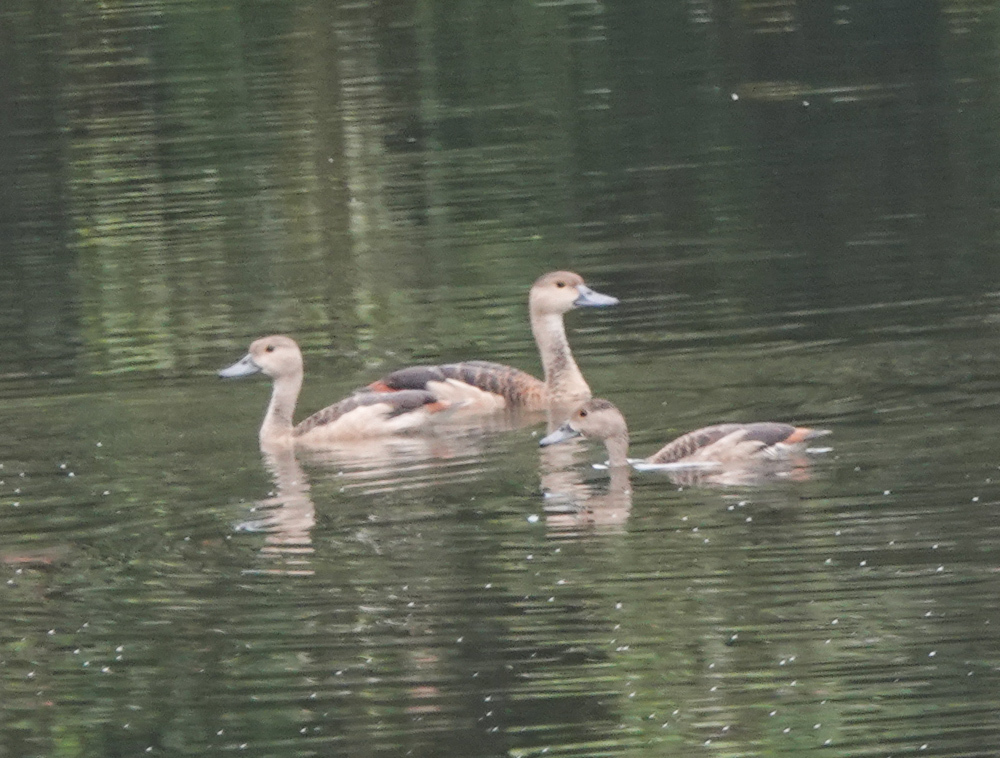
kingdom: Animalia
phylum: Chordata
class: Aves
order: Anseriformes
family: Anatidae
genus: Dendrocygna
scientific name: Dendrocygna javanica
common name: Lesser whistling-duck
